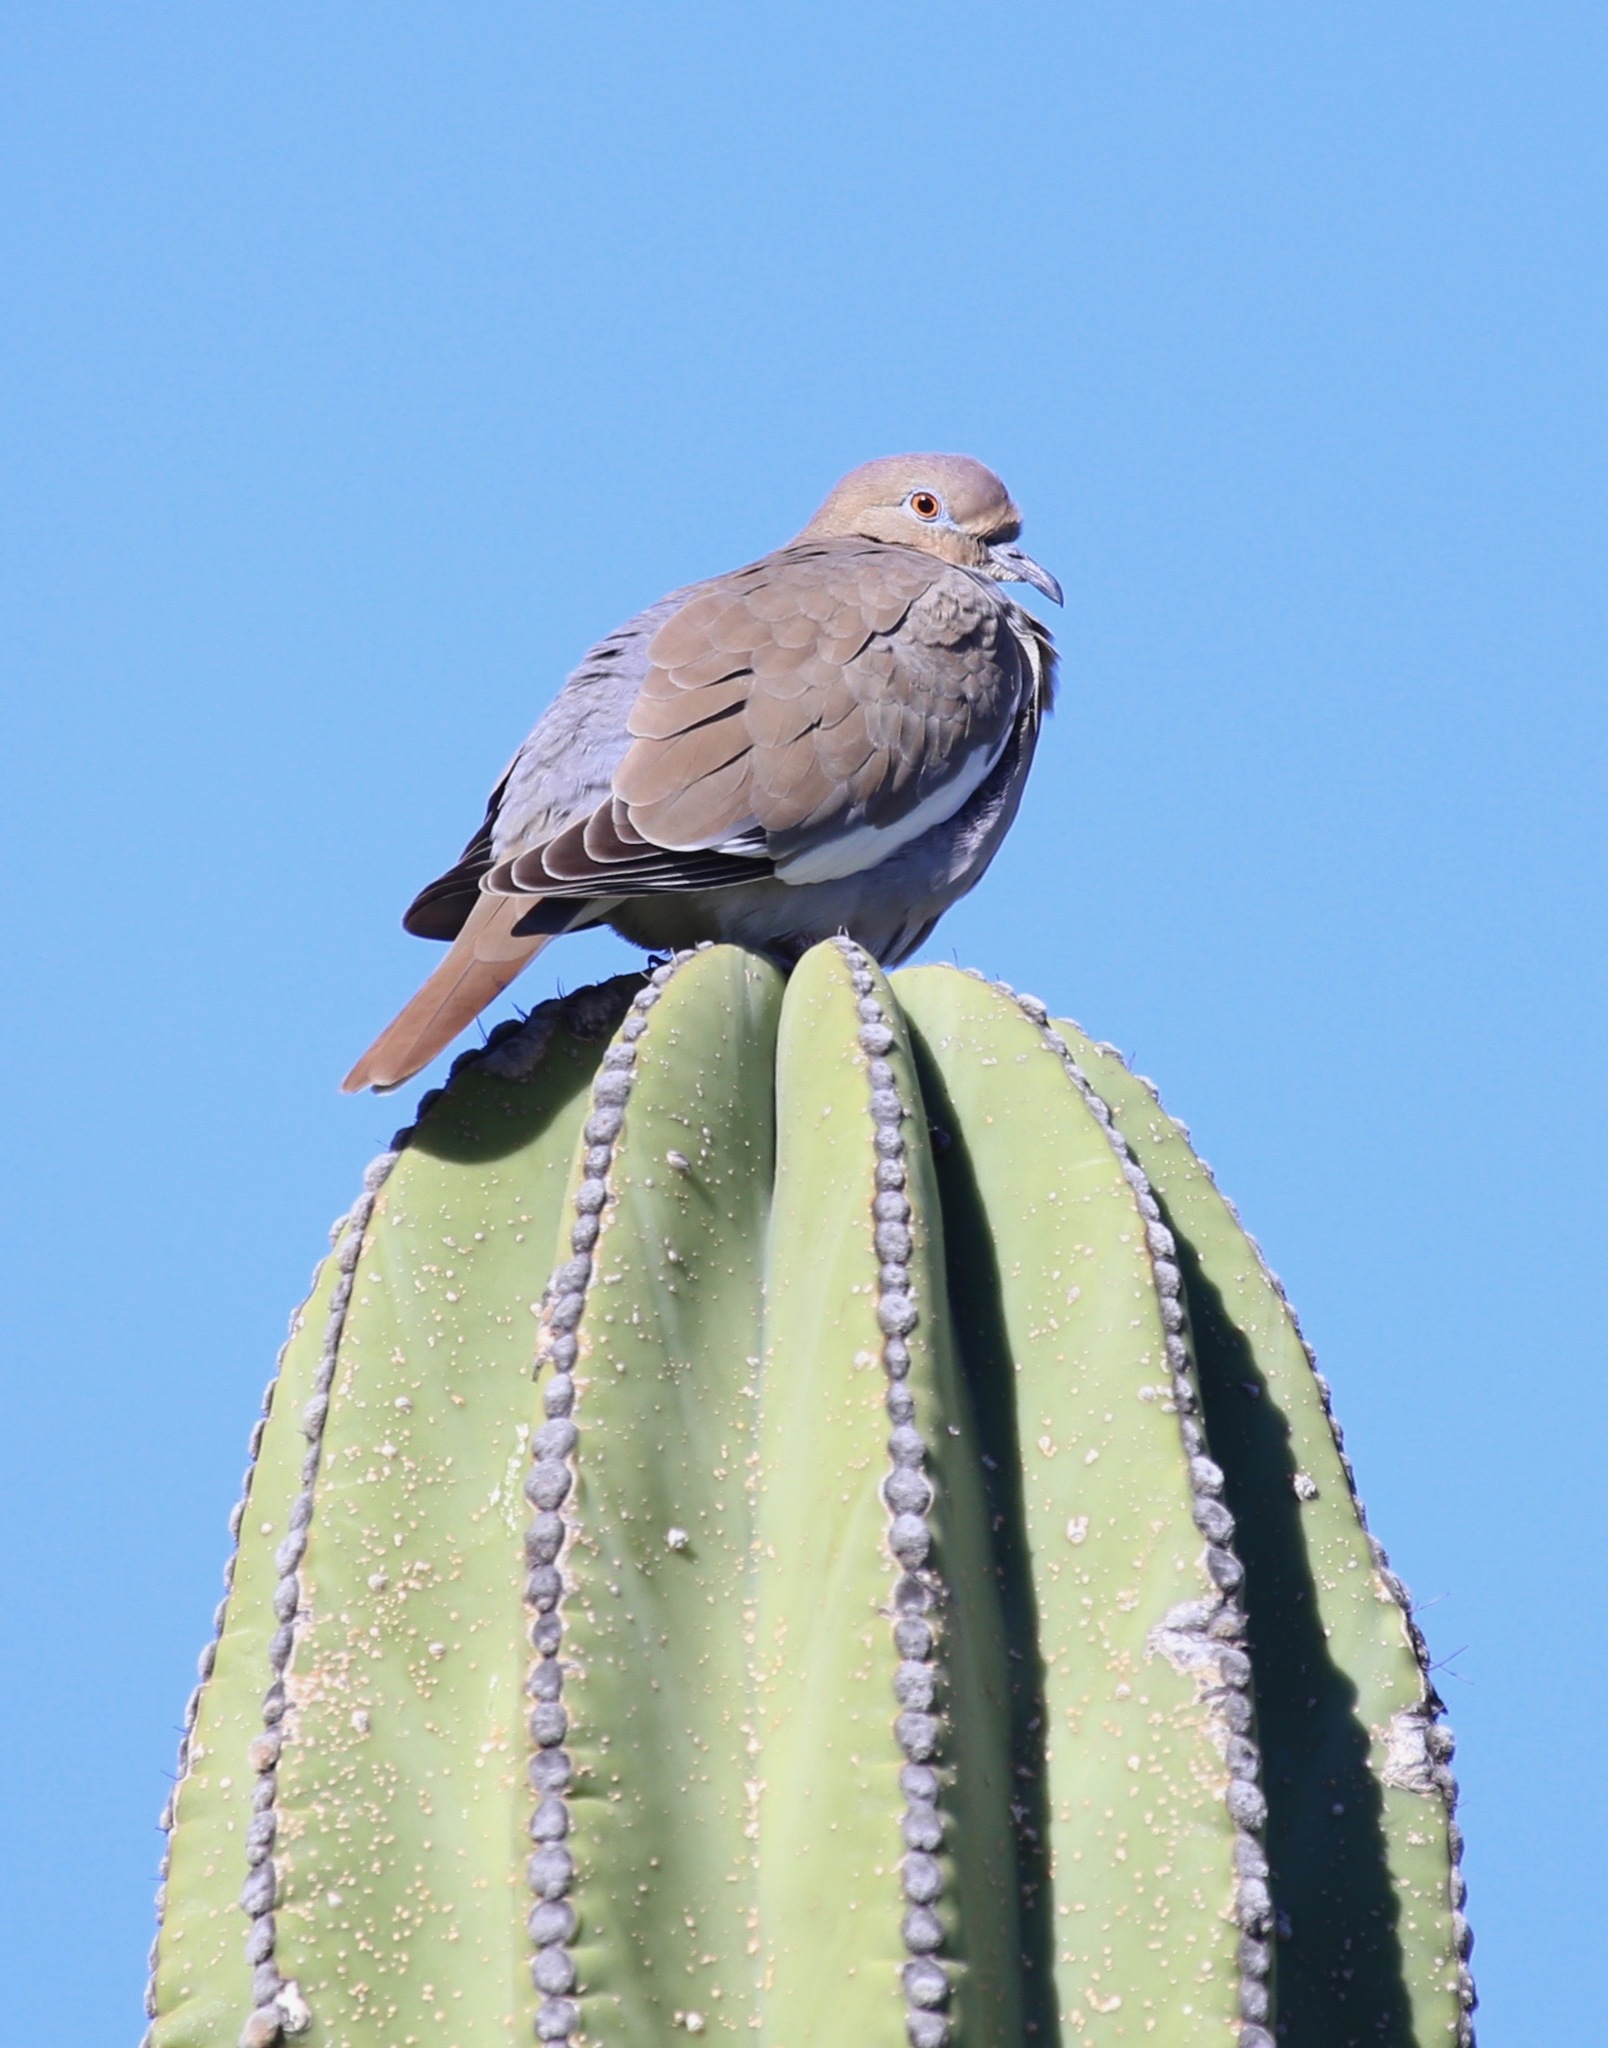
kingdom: Animalia
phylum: Chordata
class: Aves
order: Columbiformes
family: Columbidae
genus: Zenaida
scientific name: Zenaida asiatica
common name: White-winged dove
